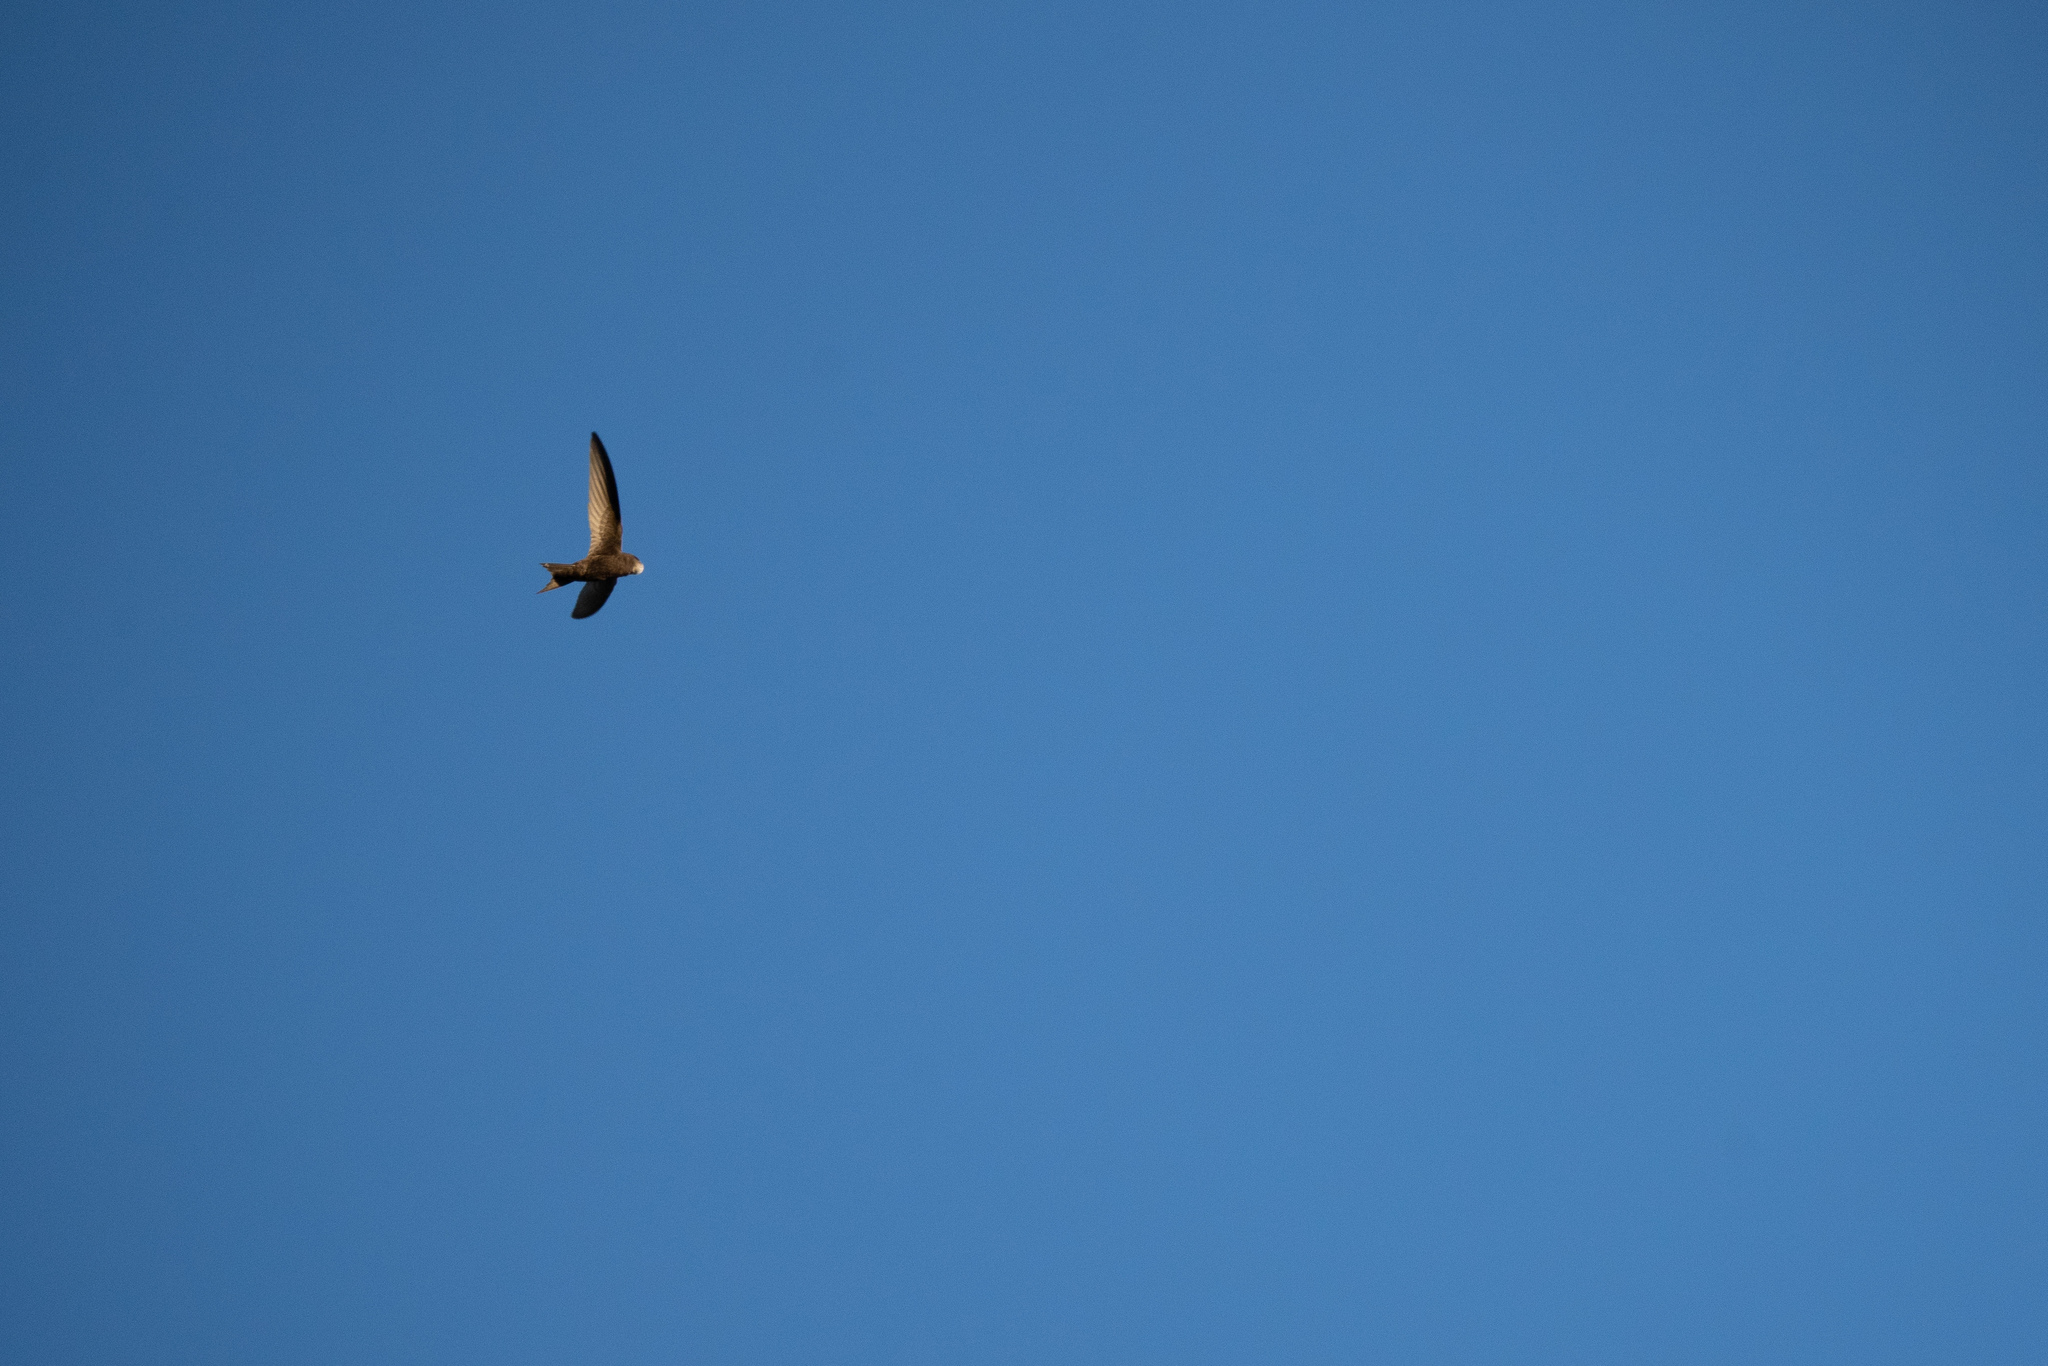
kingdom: Animalia
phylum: Chordata
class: Aves
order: Apodiformes
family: Apodidae
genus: Apus
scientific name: Apus apus
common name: Common swift
